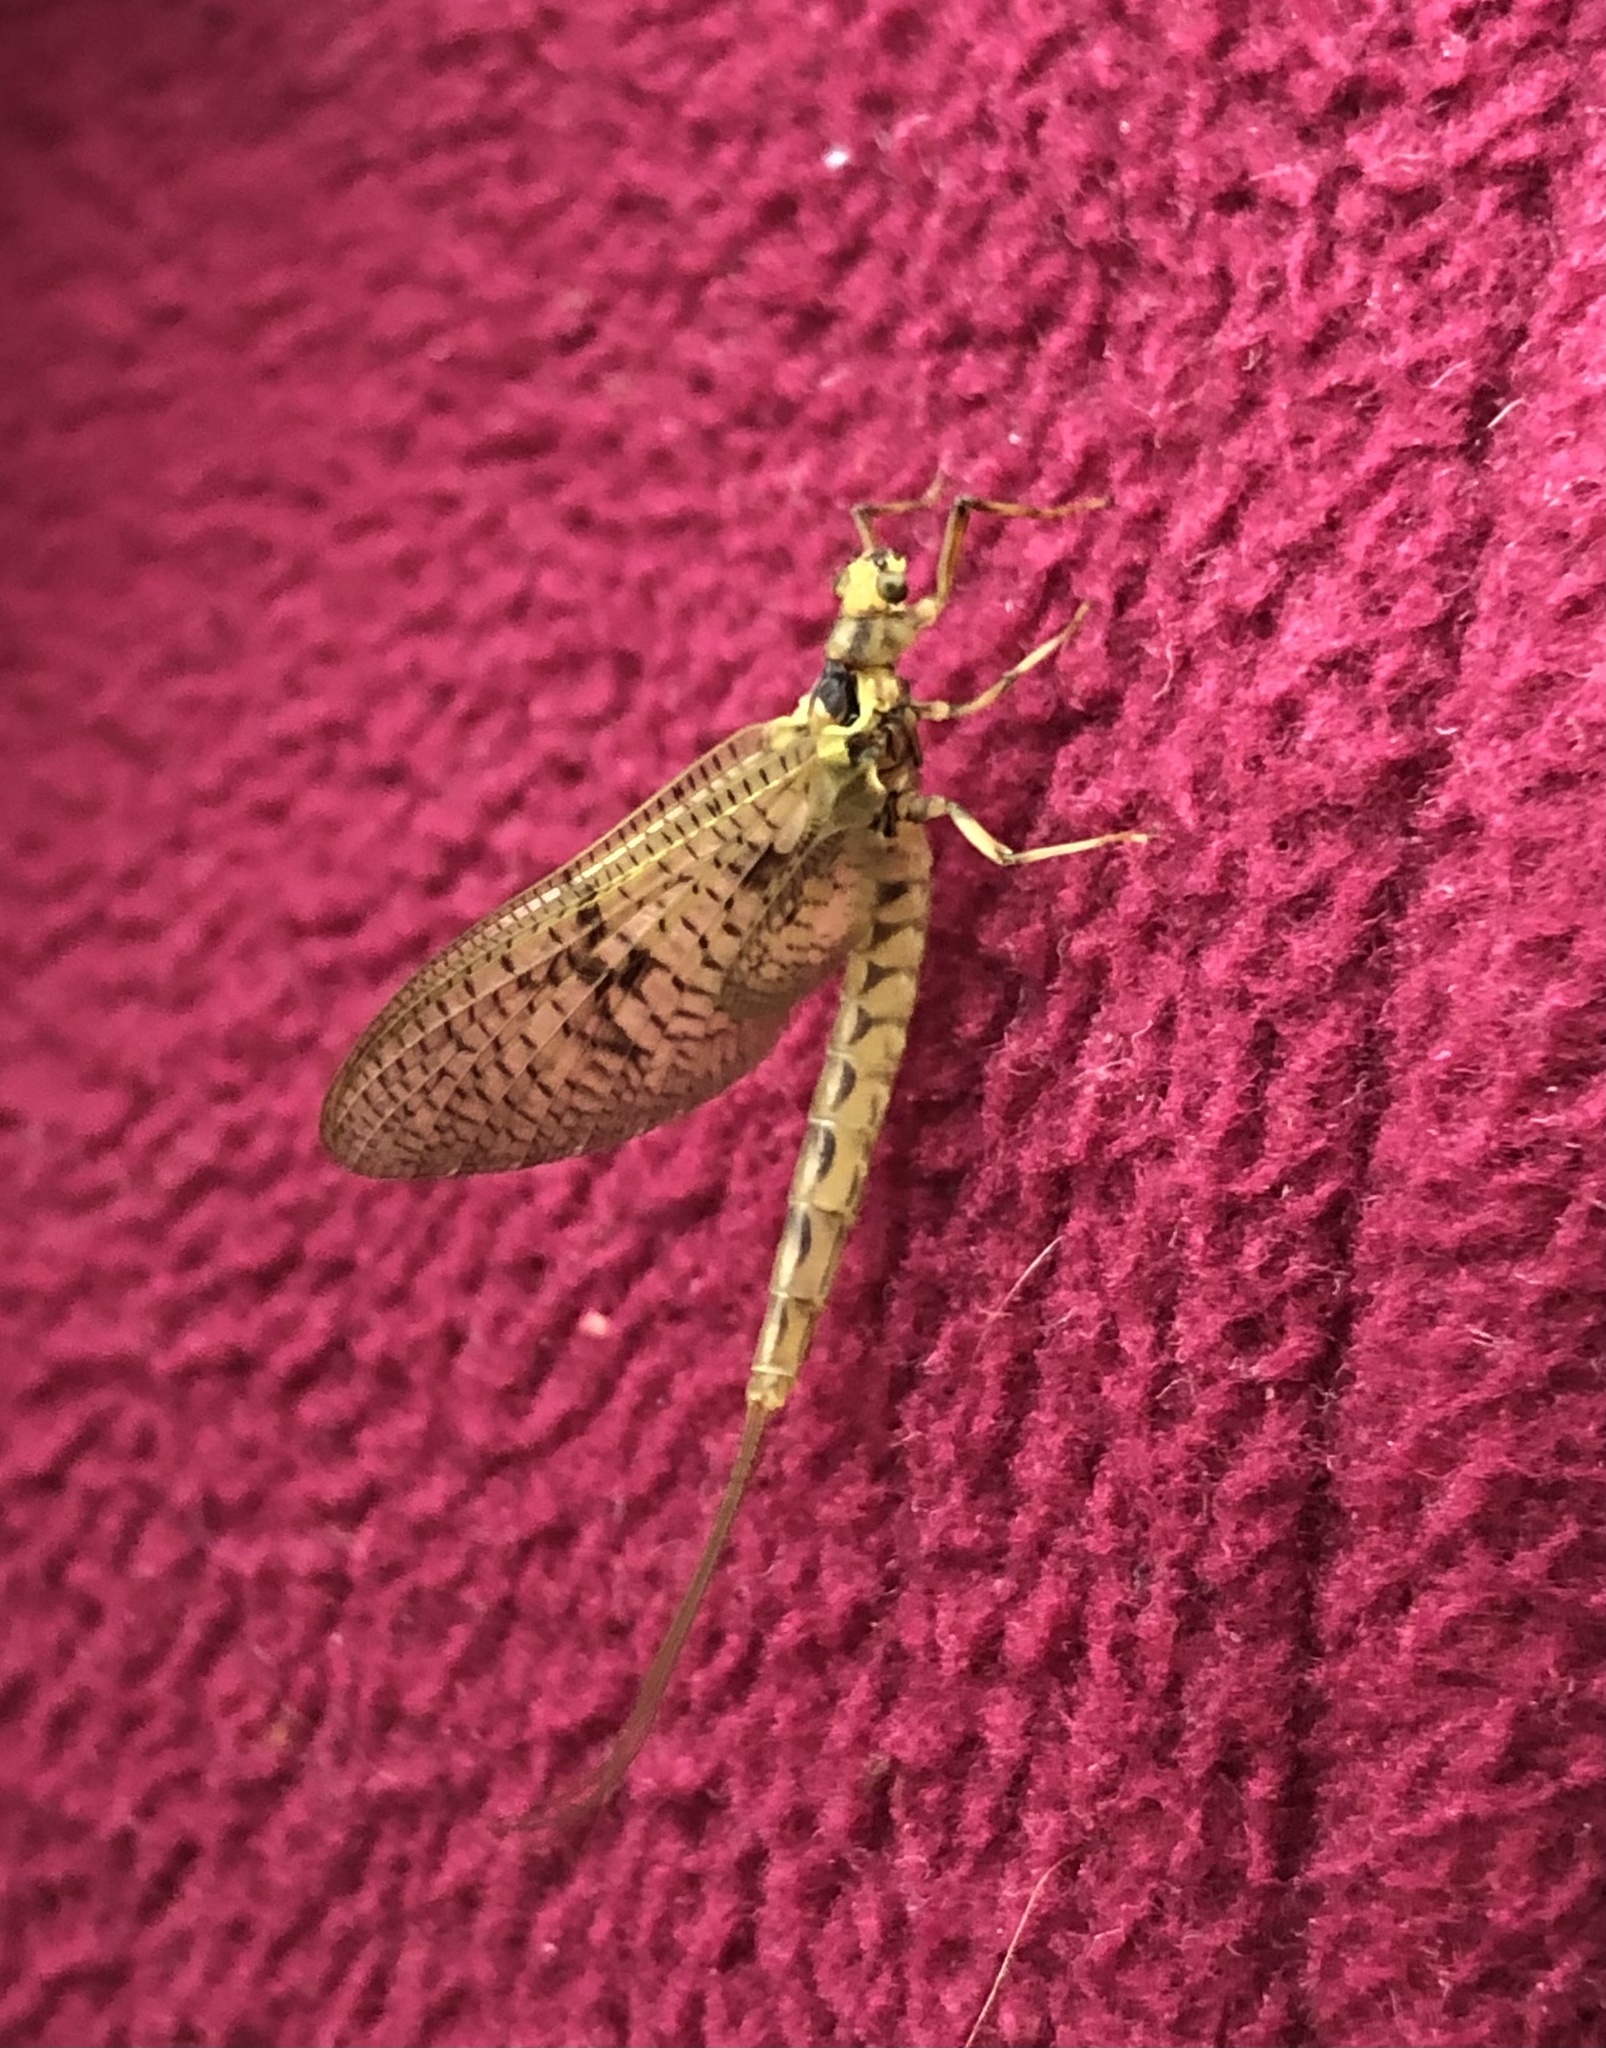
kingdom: Animalia
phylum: Arthropoda
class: Insecta
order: Ephemeroptera
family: Ephemeridae
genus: Ephemera
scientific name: Ephemera vulgata
